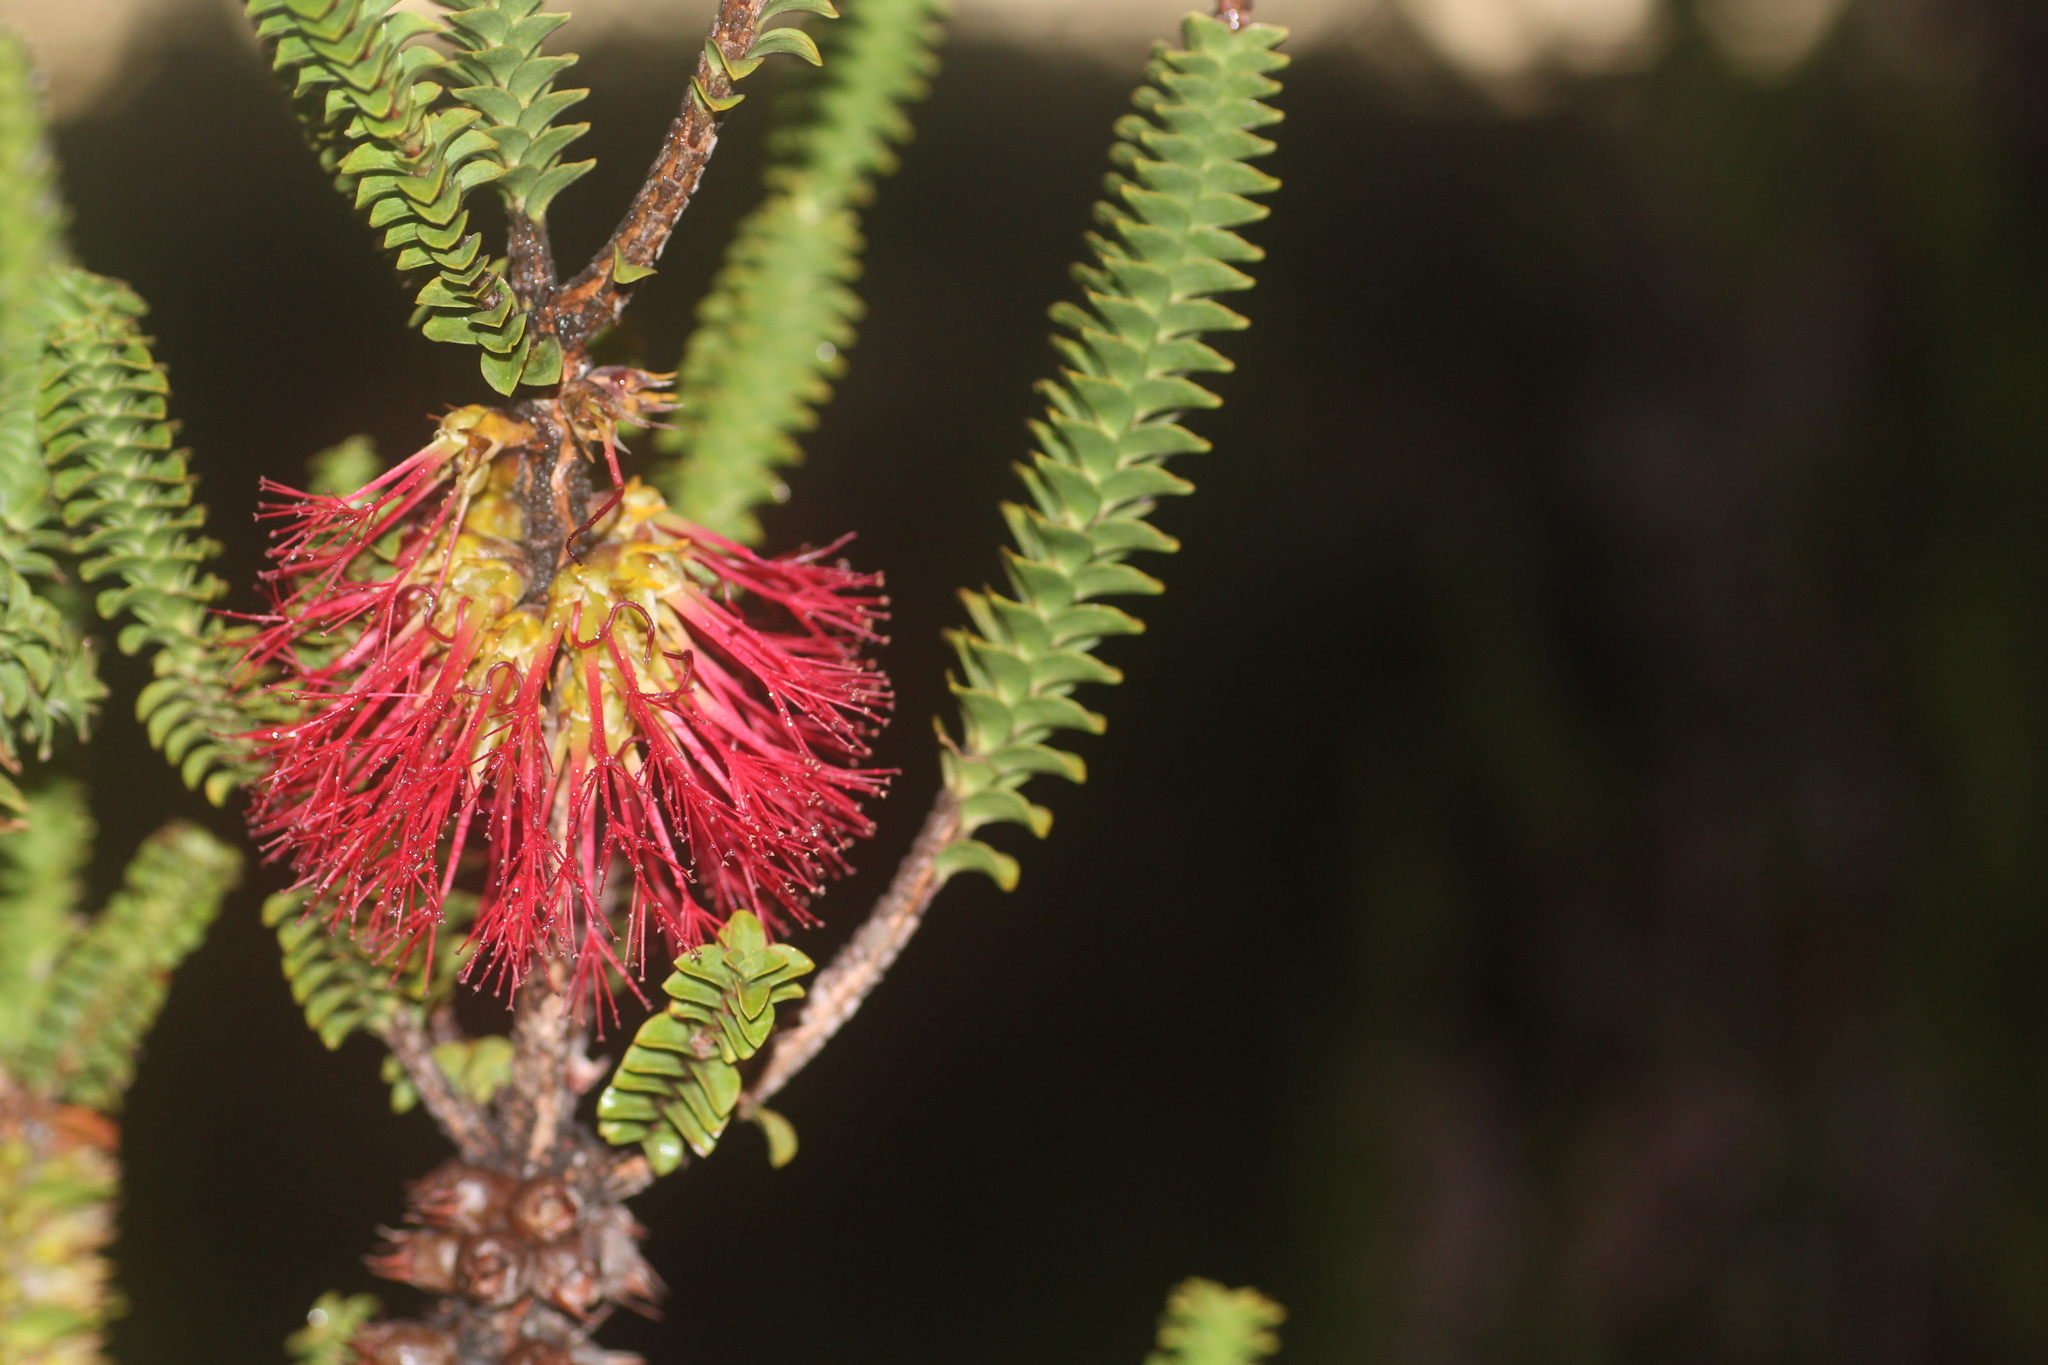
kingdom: Plantae
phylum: Tracheophyta
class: Magnoliopsida
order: Myrtales
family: Myrtaceae
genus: Melaleuca
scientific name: Melaleuca transversa
